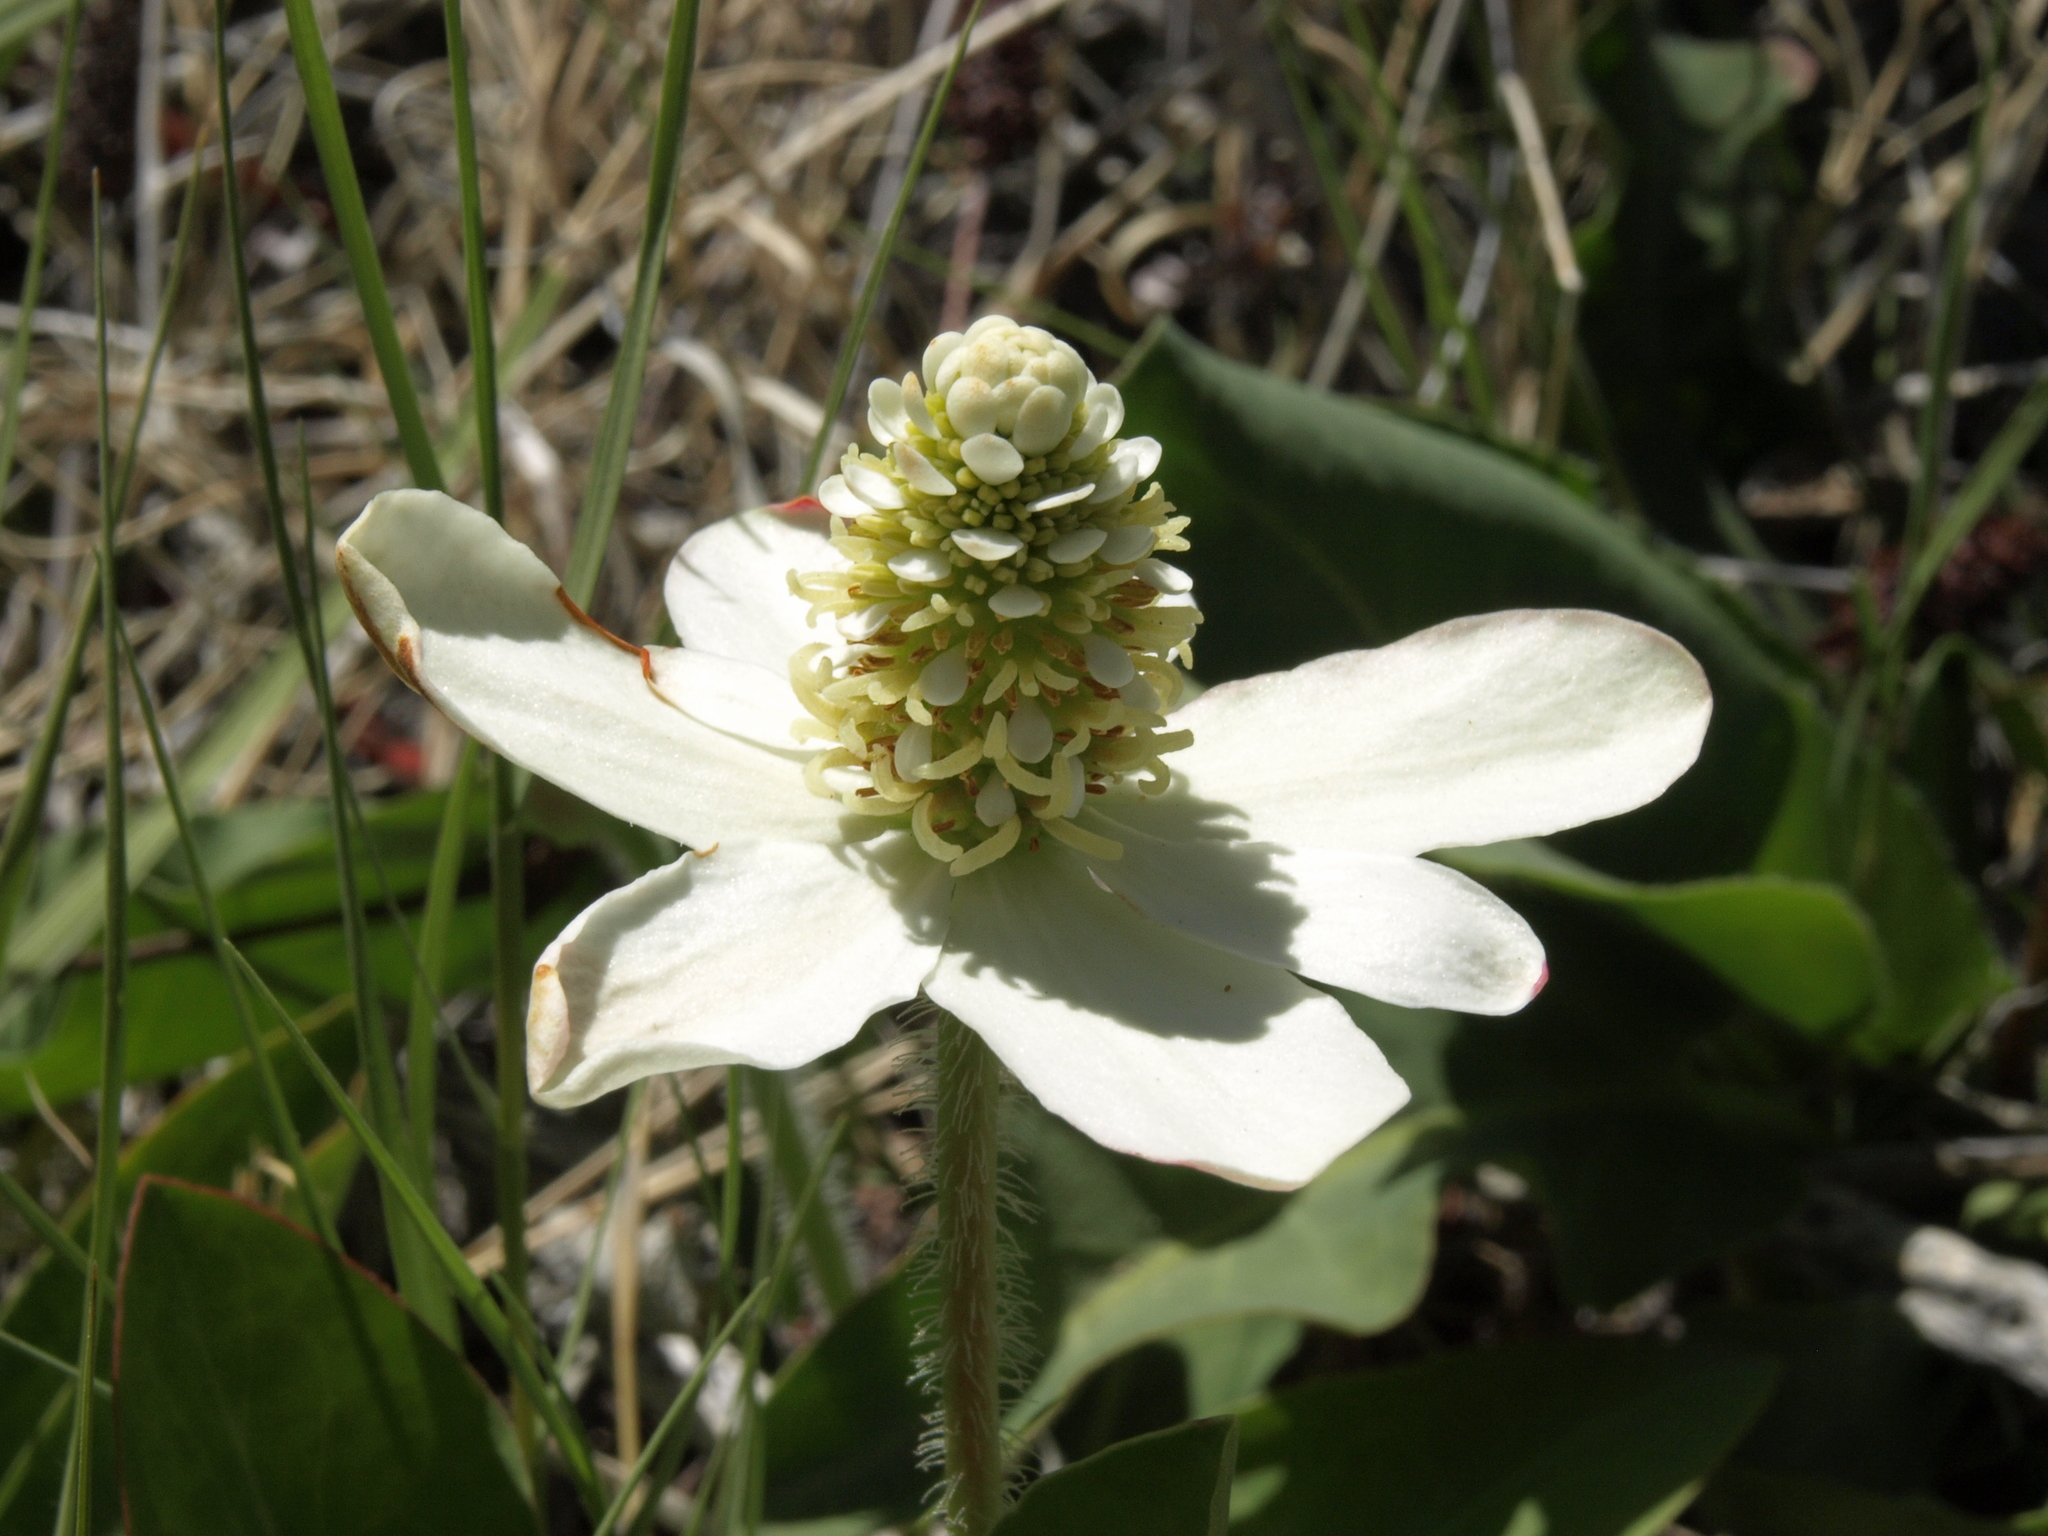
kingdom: Plantae
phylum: Tracheophyta
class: Magnoliopsida
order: Piperales
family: Saururaceae
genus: Anemopsis
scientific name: Anemopsis californica
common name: Apache-beads
